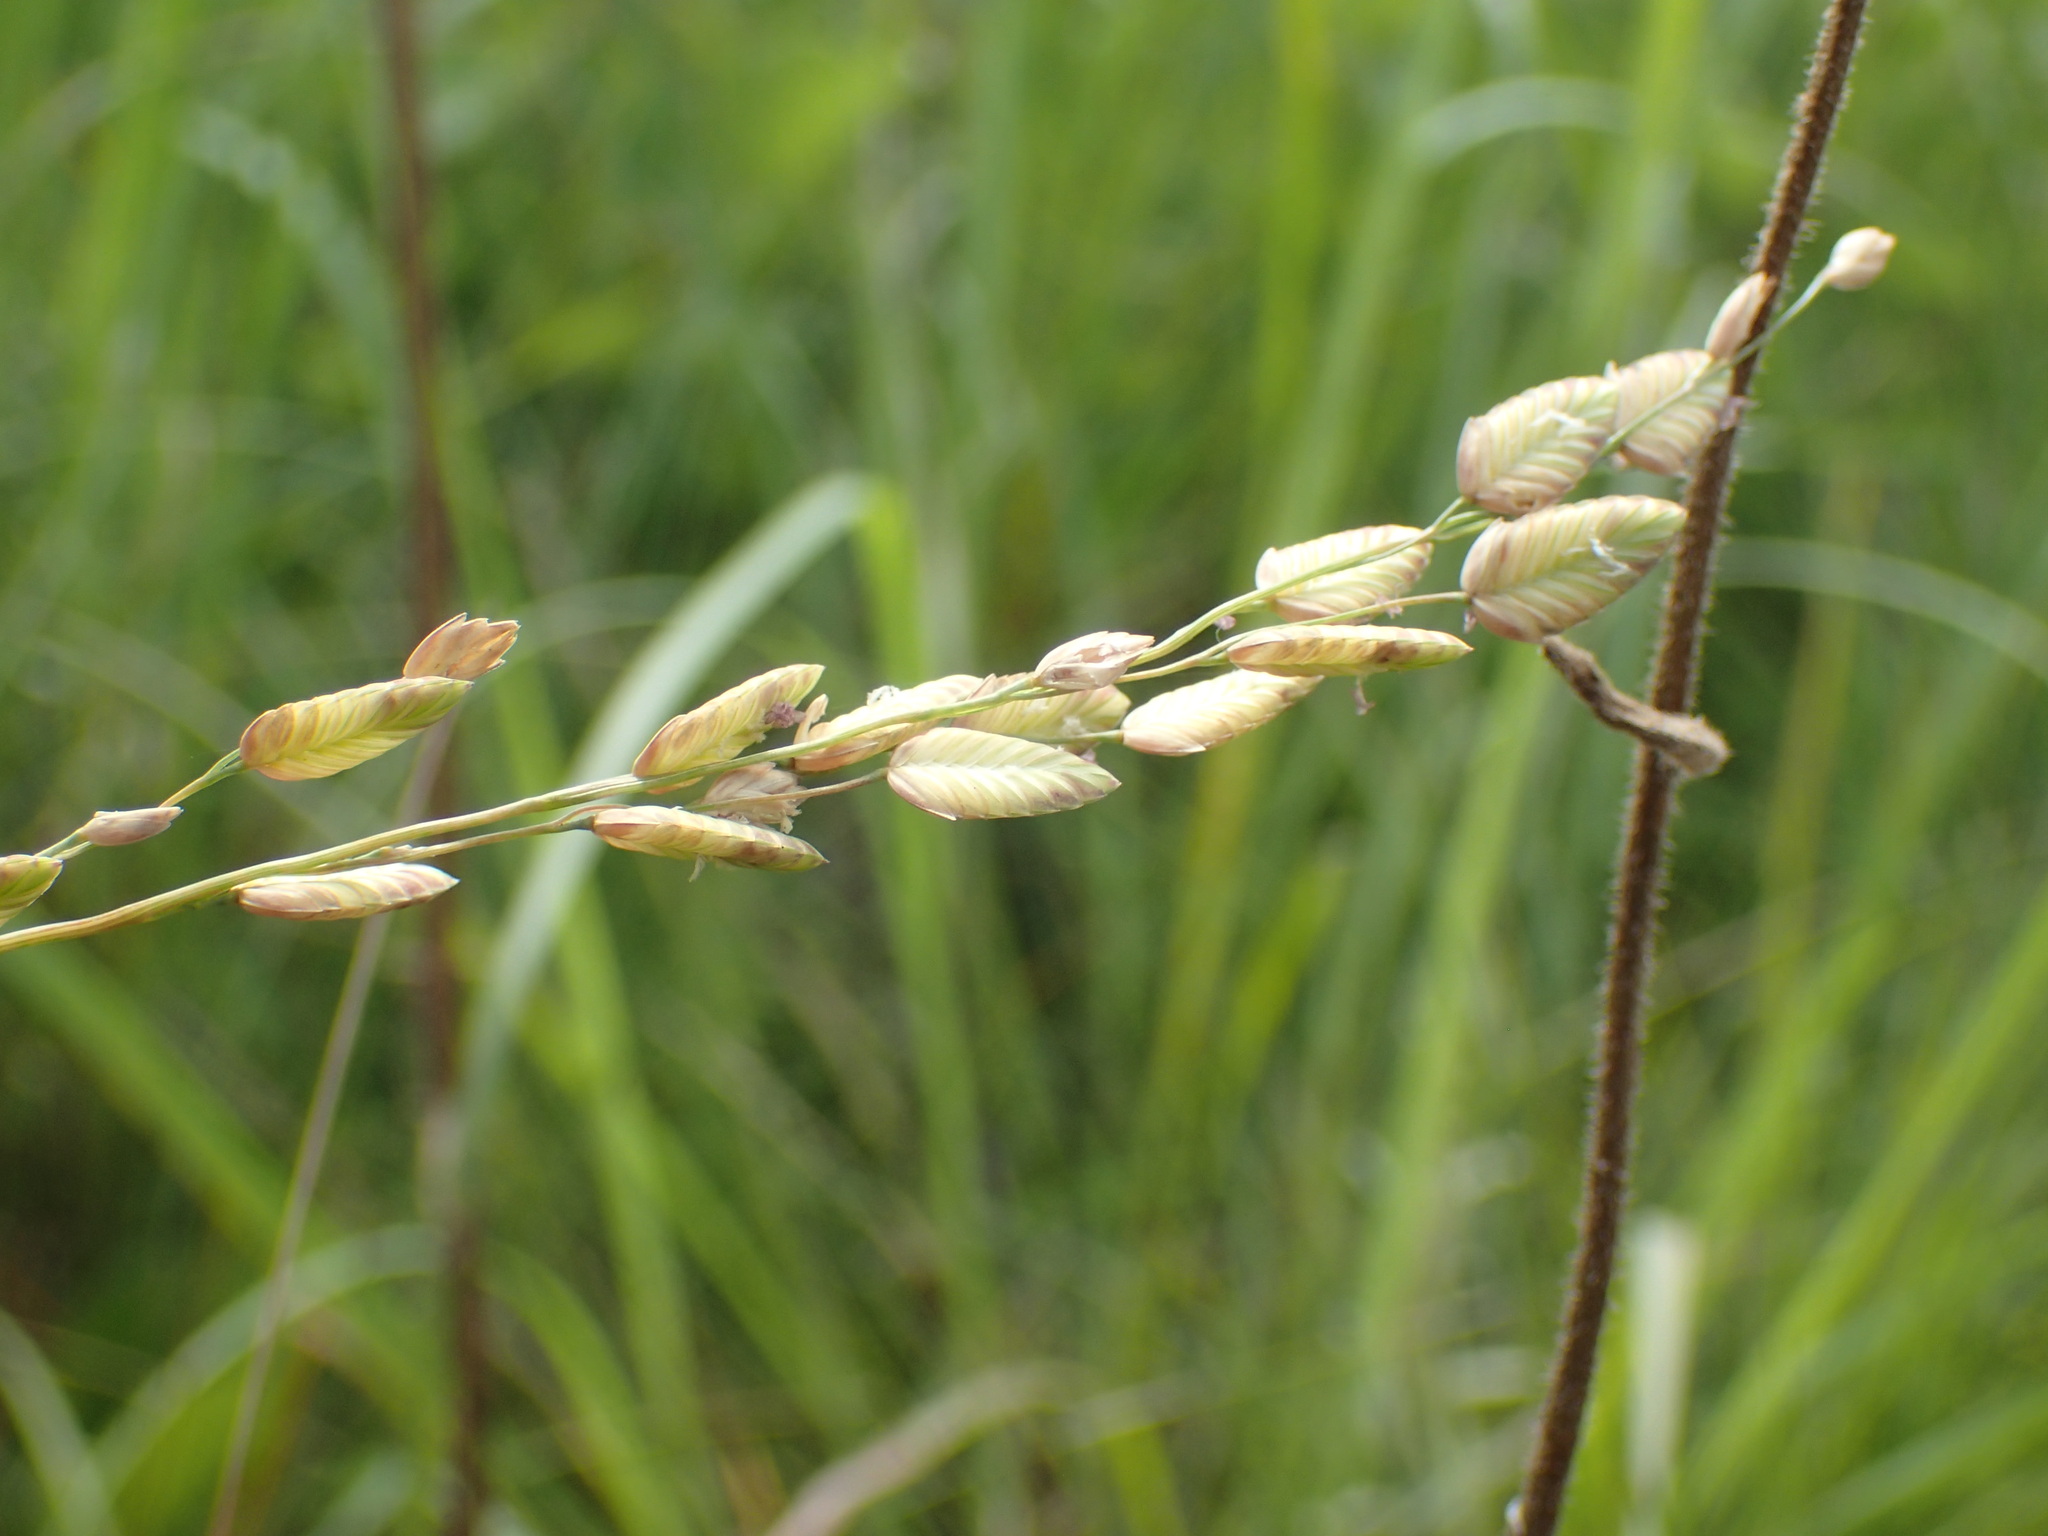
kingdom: Plantae
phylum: Tracheophyta
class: Liliopsida
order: Poales
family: Poaceae
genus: Eragrostis
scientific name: Eragrostis capensis
